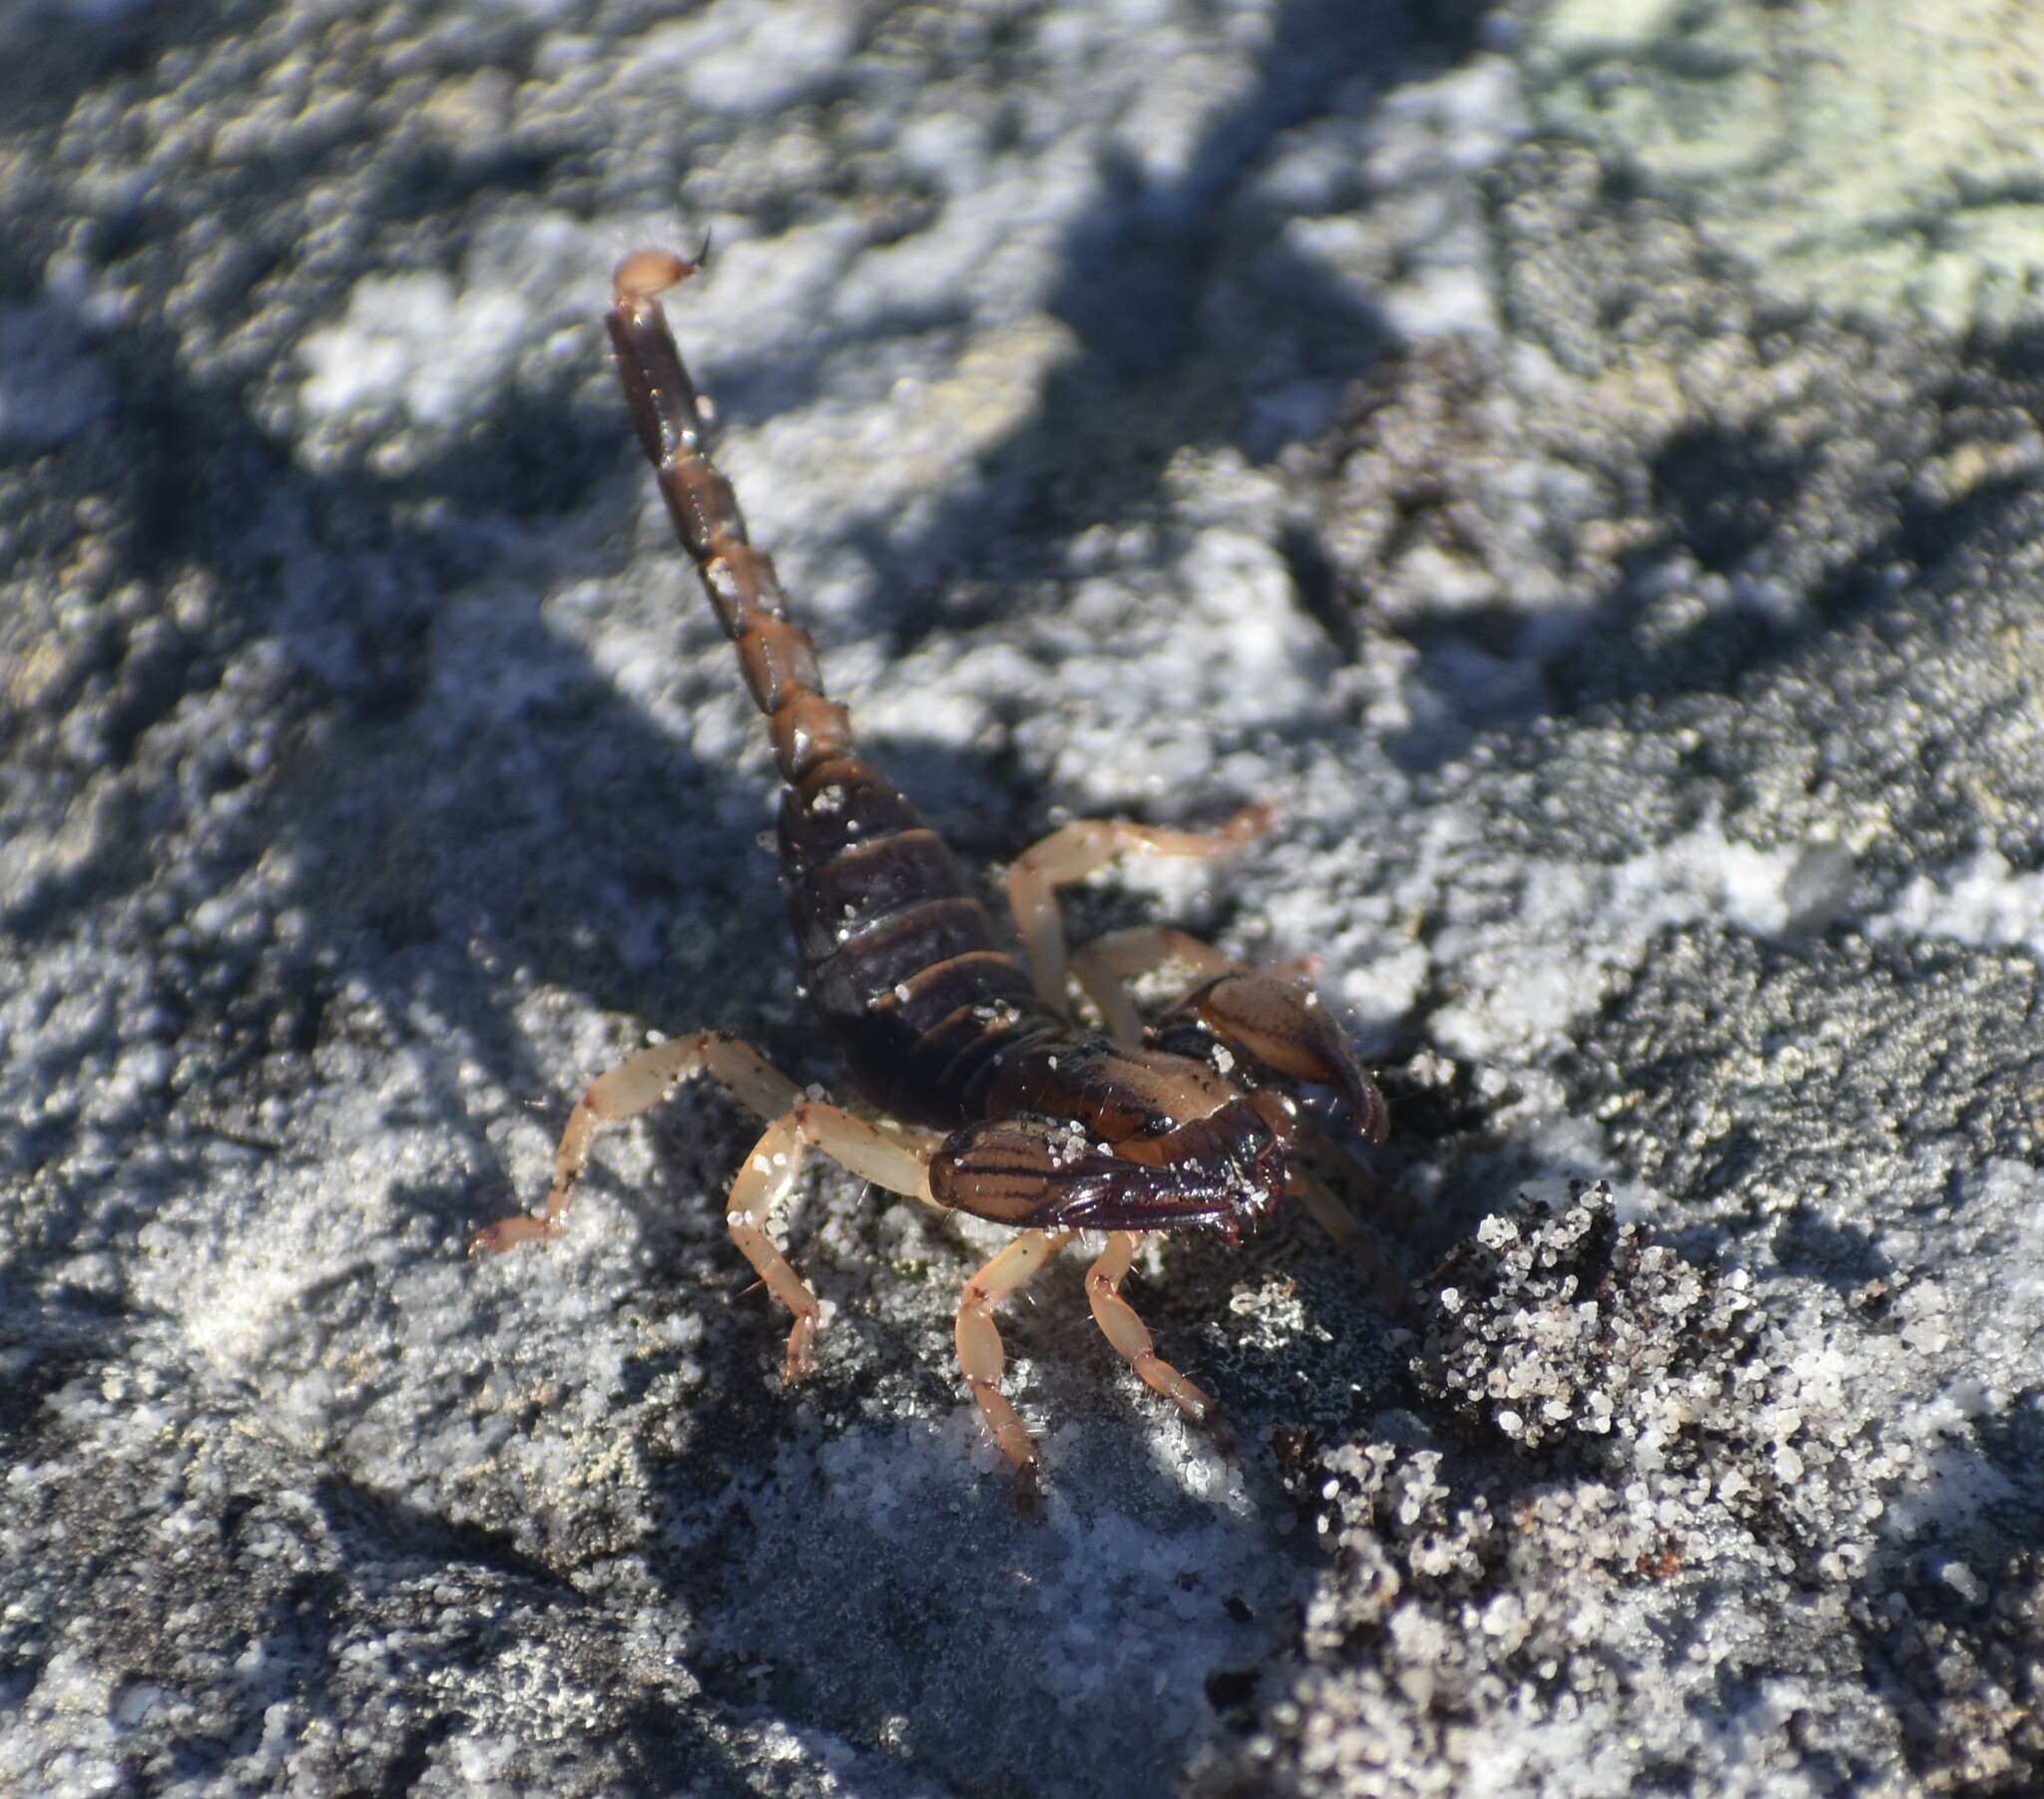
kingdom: Animalia
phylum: Arthropoda
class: Arachnida
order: Scorpiones
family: Scorpionidae
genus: Opistophthalmus
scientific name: Opistophthalmus capensis
